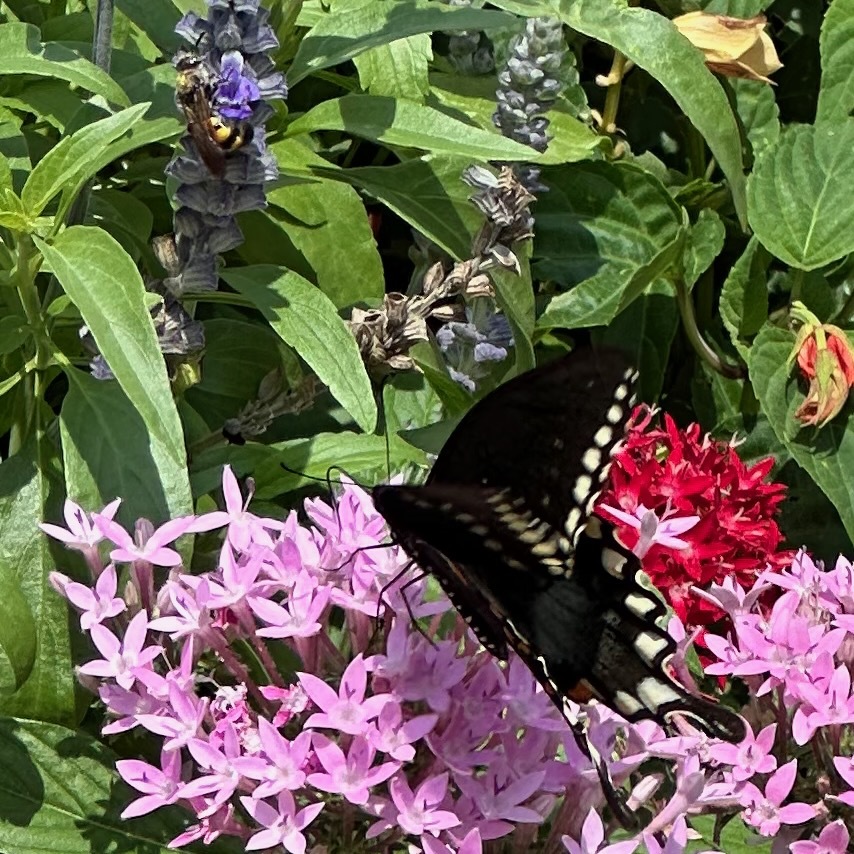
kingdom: Animalia
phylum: Arthropoda
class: Insecta
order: Lepidoptera
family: Papilionidae
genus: Papilio
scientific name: Papilio troilus
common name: Spicebush swallowtail
